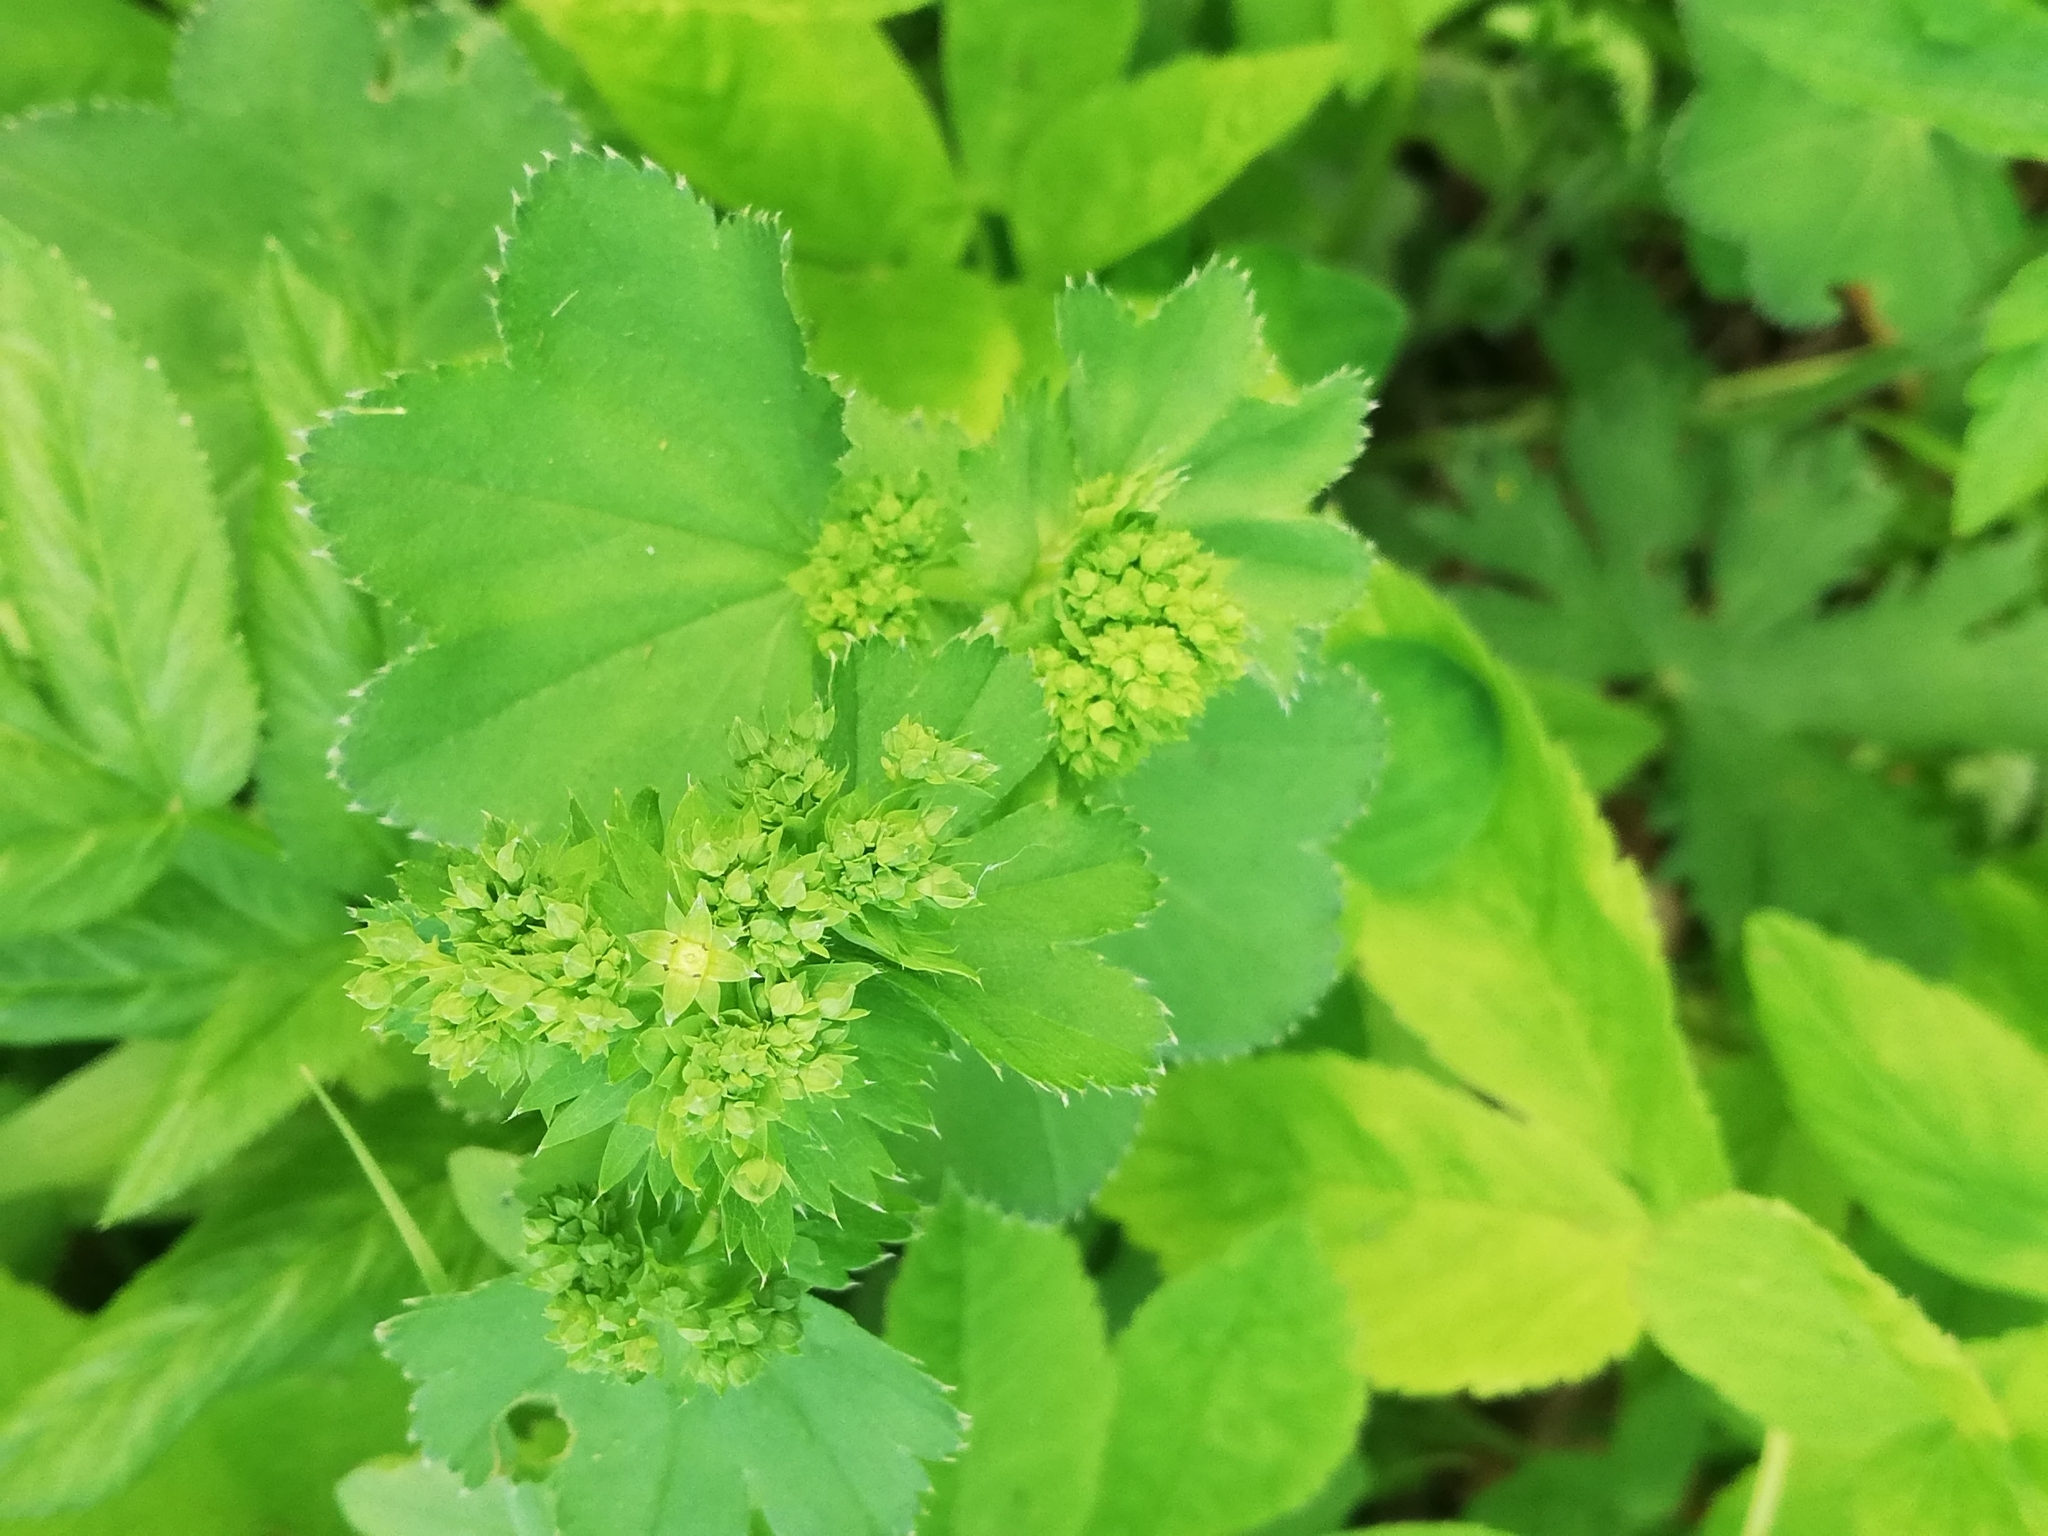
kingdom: Plantae
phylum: Tracheophyta
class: Magnoliopsida
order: Rosales
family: Rosaceae
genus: Alchemilla
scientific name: Alchemilla
